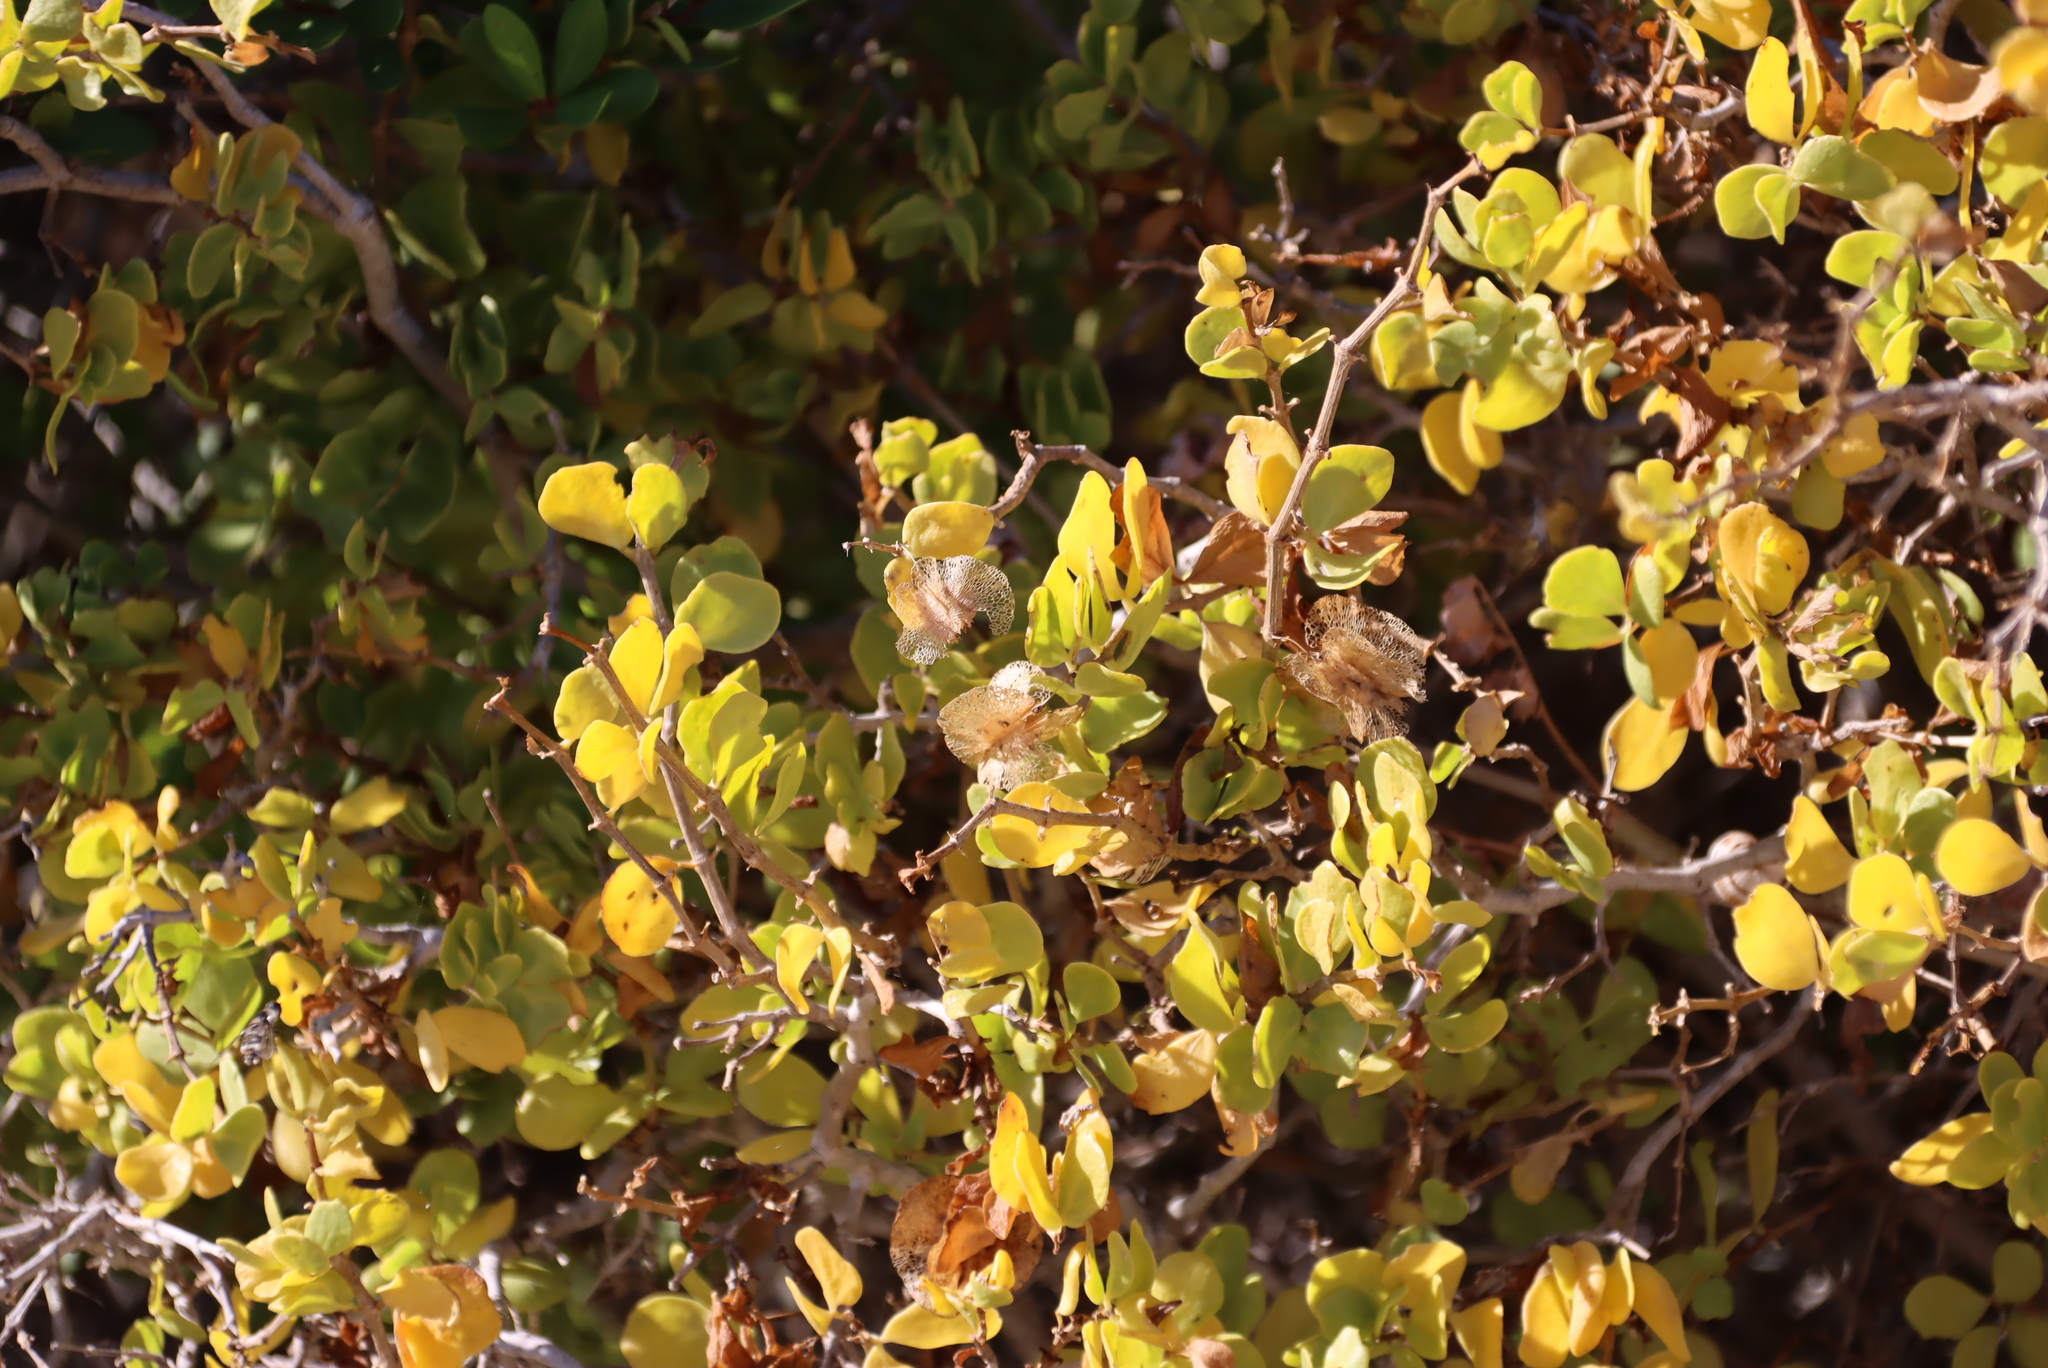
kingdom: Plantae
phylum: Tracheophyta
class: Magnoliopsida
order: Zygophyllales
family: Zygophyllaceae
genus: Roepera
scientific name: Roepera morgsana
